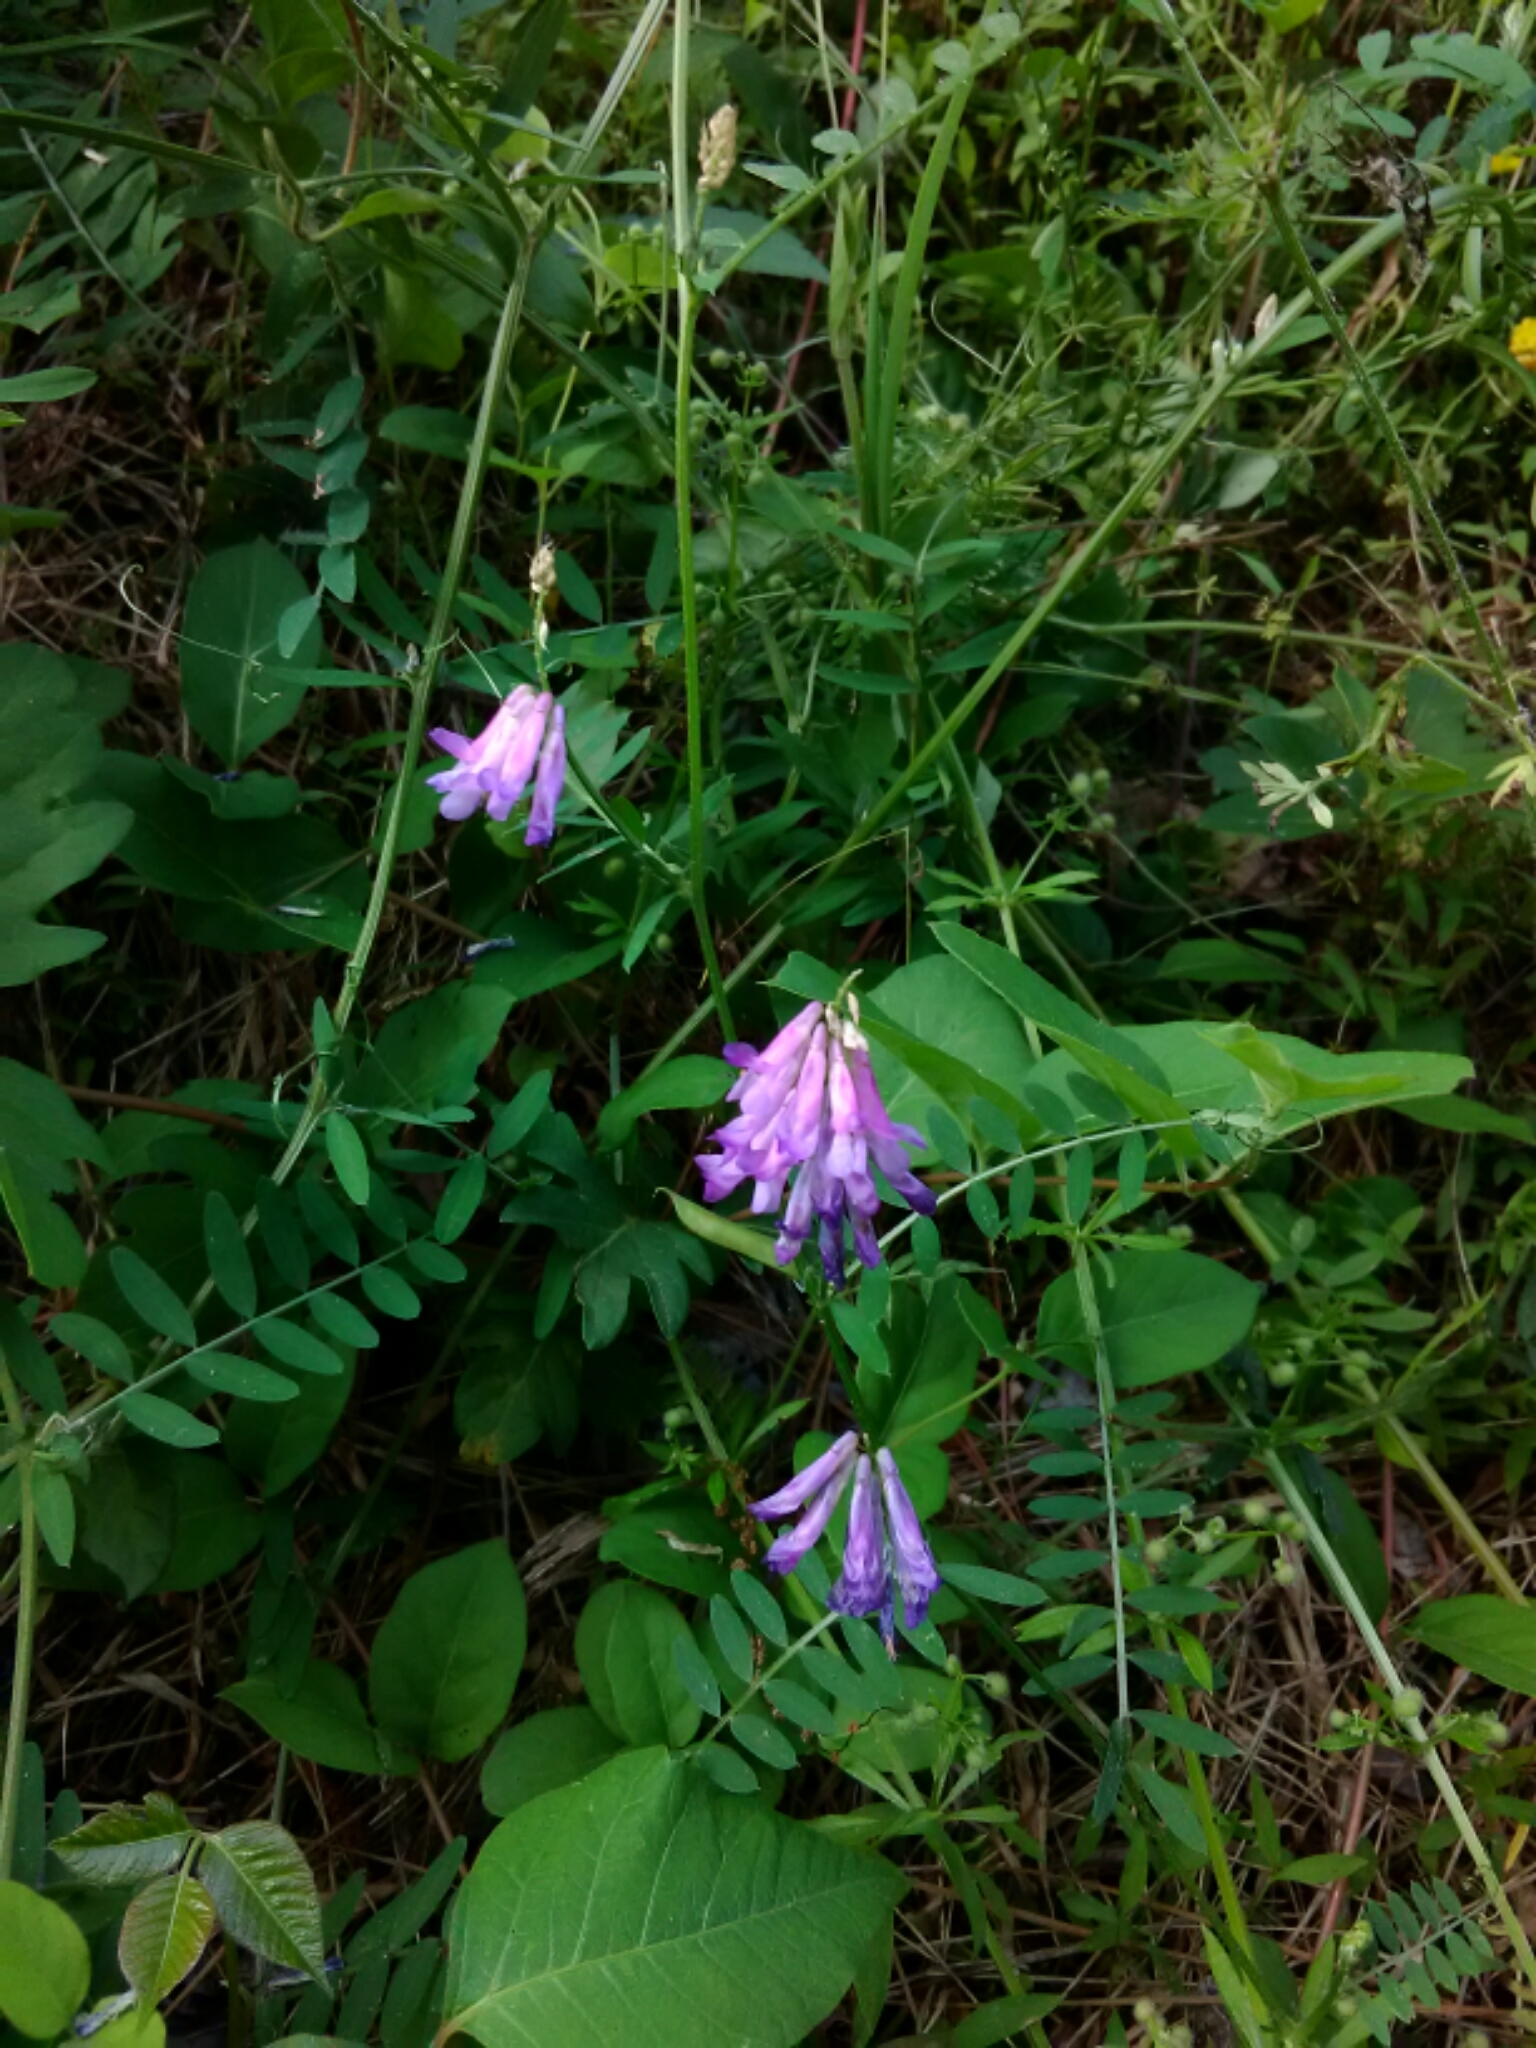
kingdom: Plantae
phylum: Tracheophyta
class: Magnoliopsida
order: Fabales
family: Fabaceae
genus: Vicia
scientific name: Vicia villosa
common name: Fodder vetch
